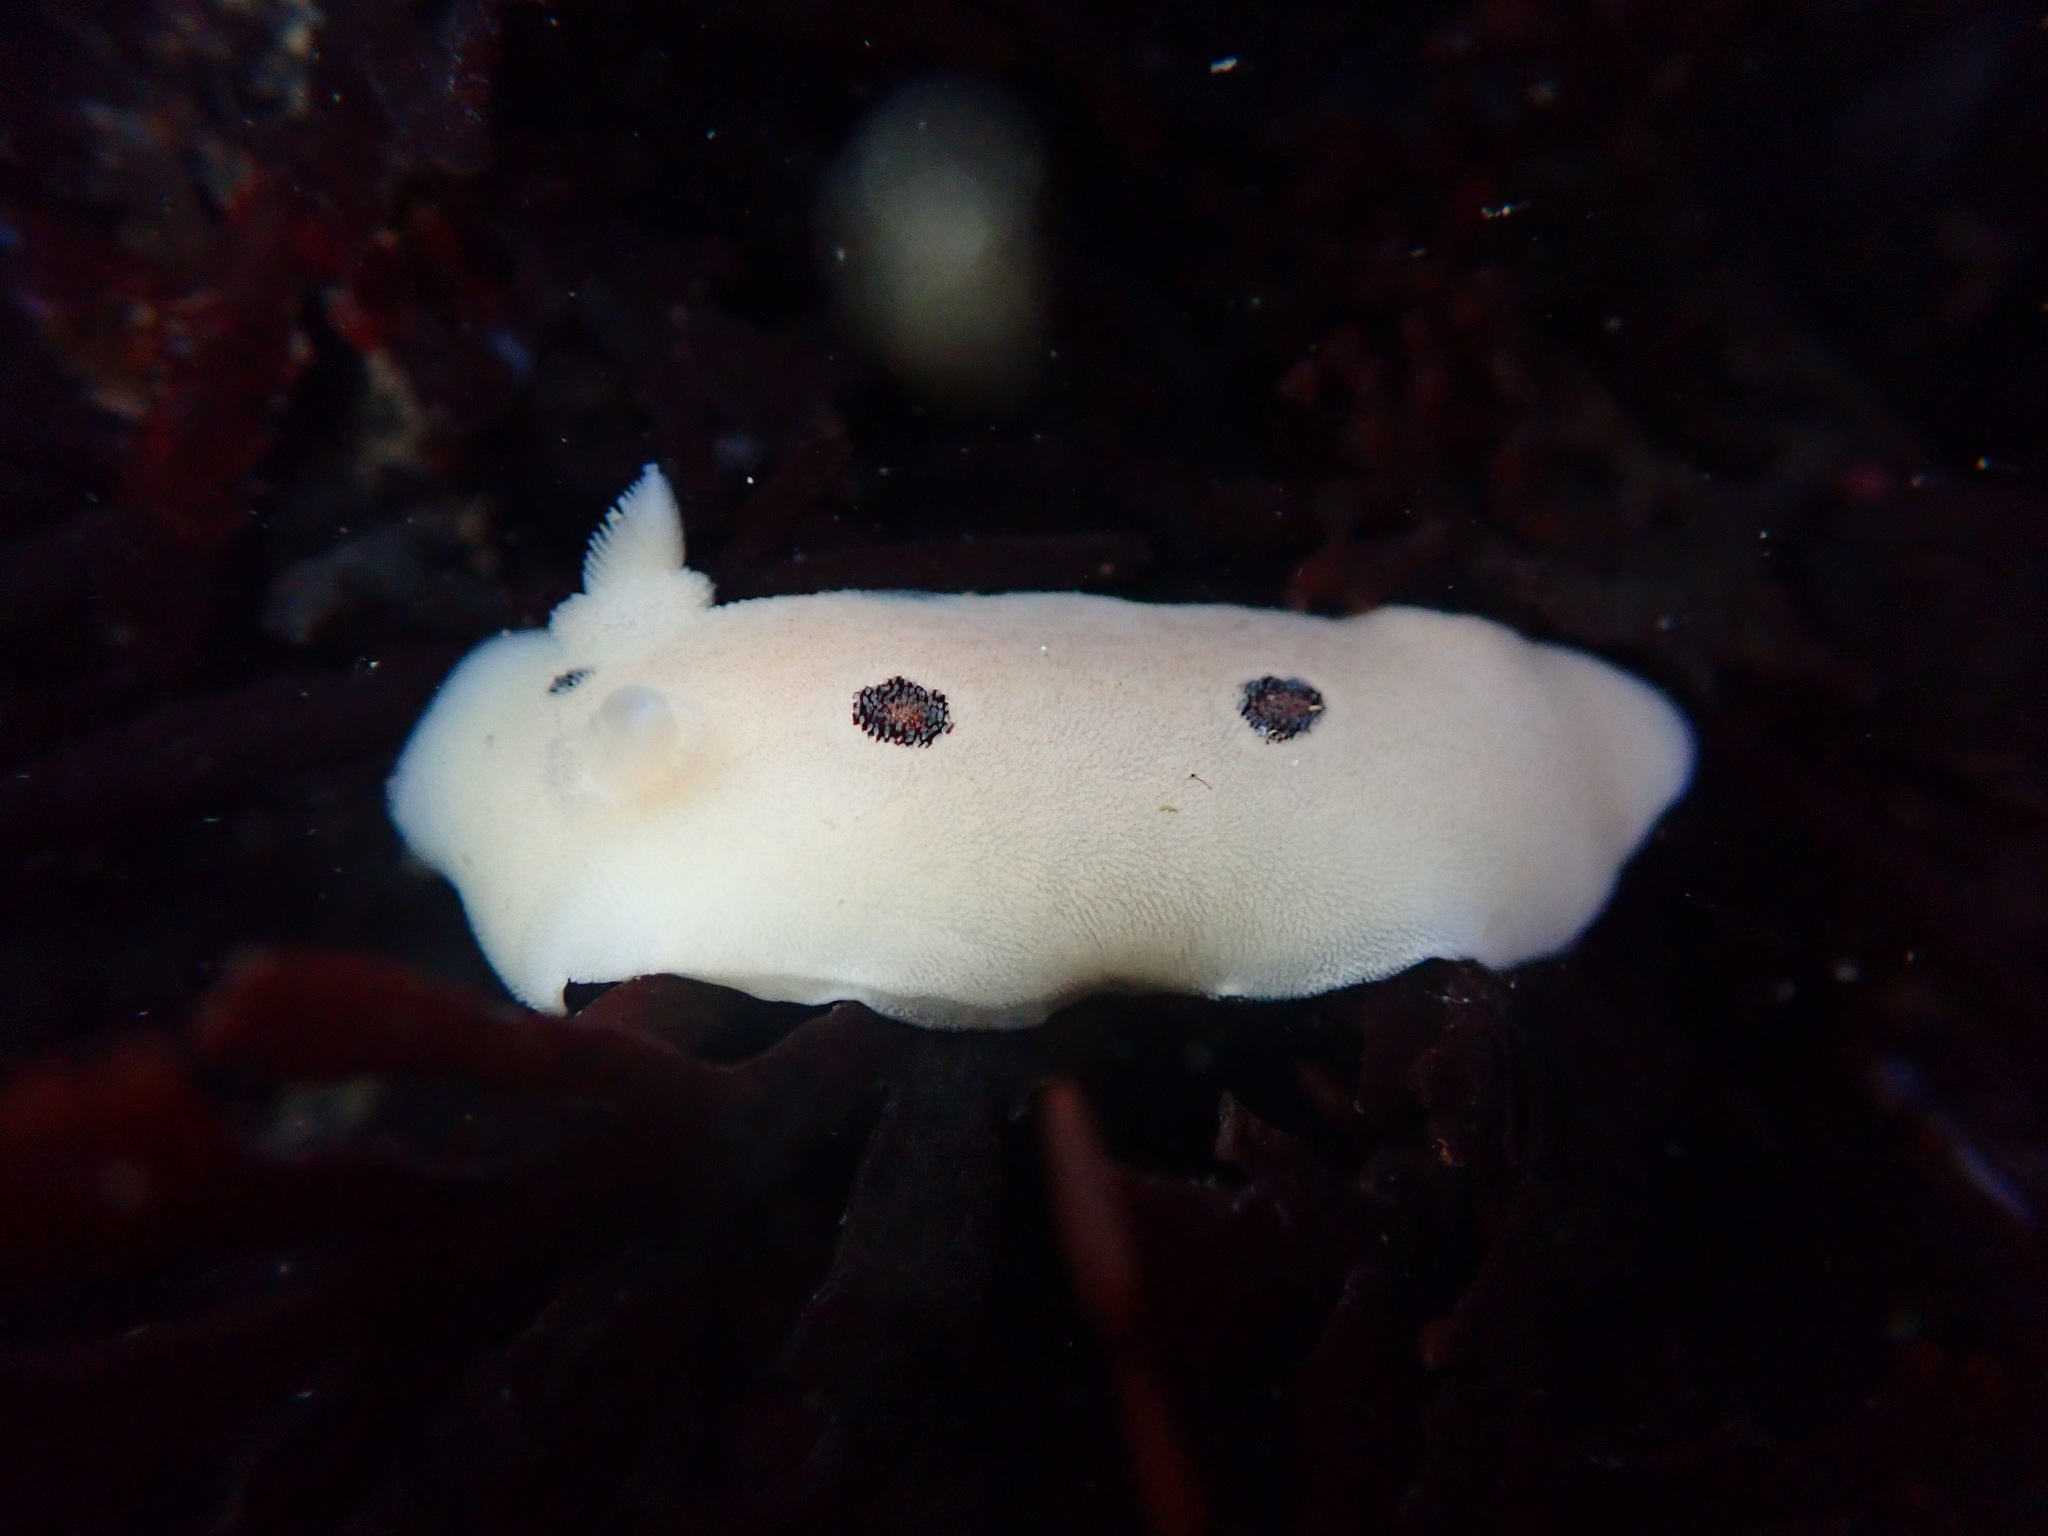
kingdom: Animalia
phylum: Mollusca
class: Gastropoda
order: Nudibranchia
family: Discodorididae
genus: Diaulula
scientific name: Diaulula sandiegensis
